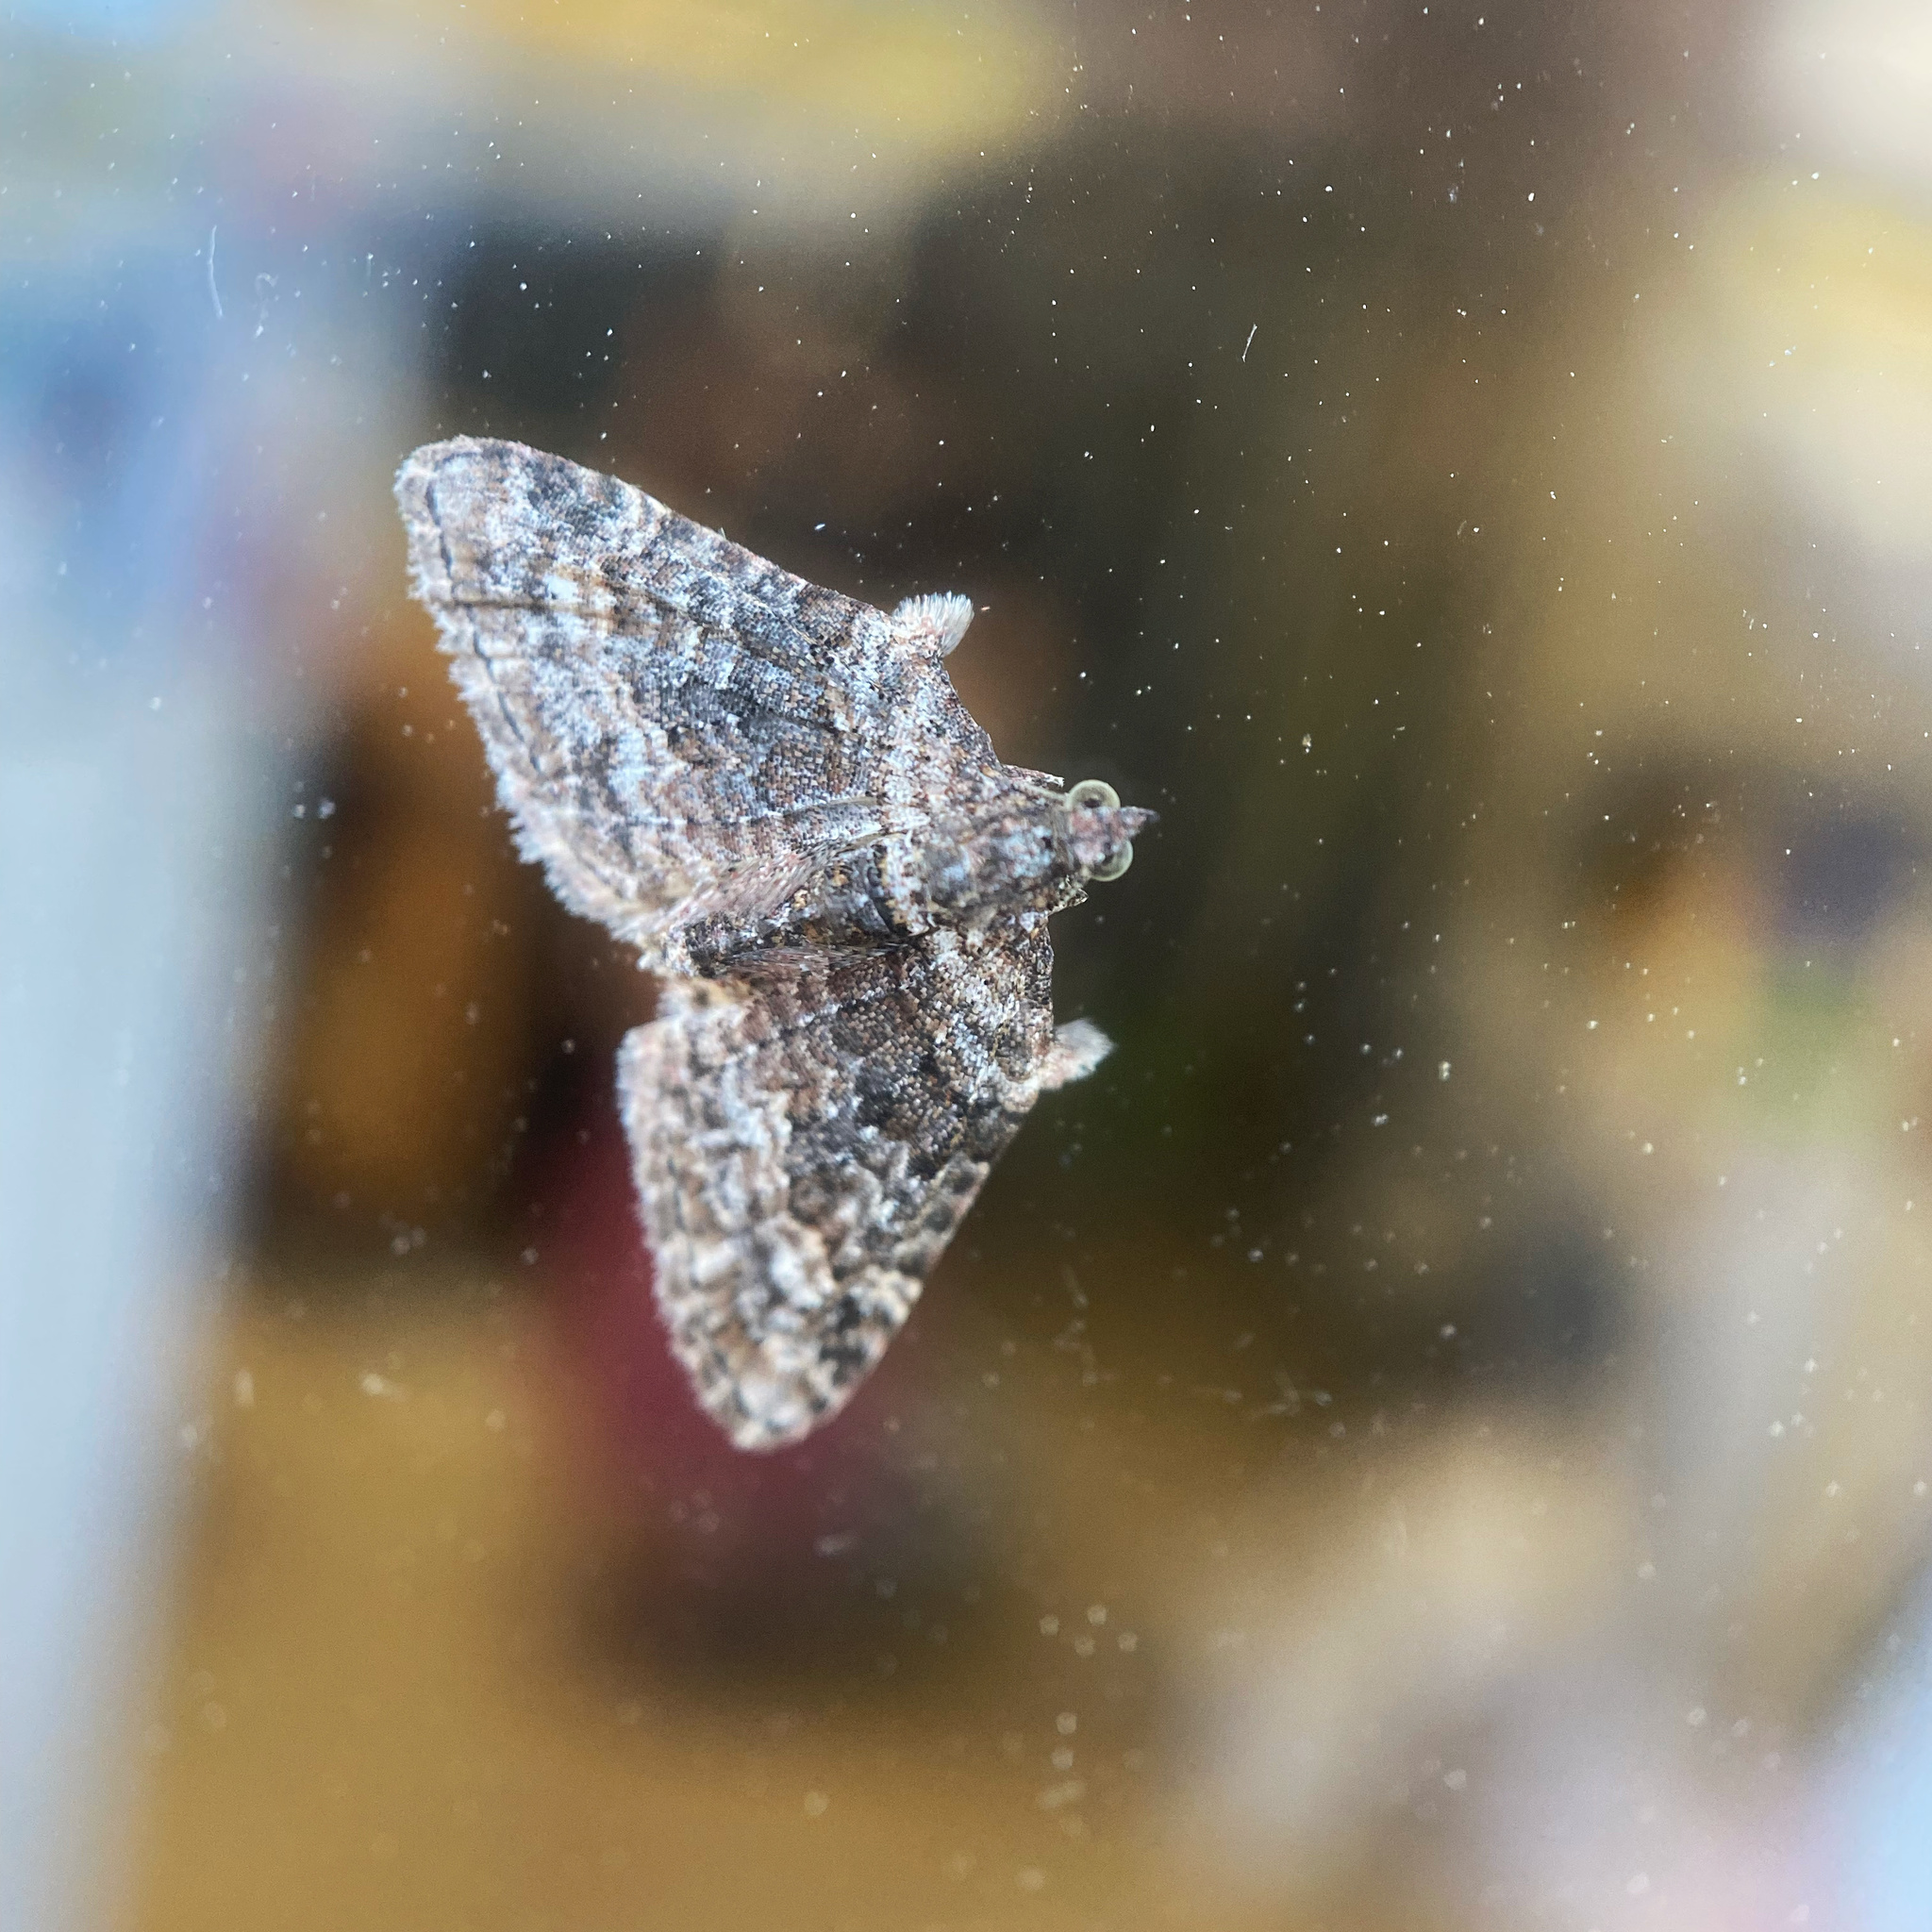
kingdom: Animalia
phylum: Arthropoda
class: Insecta
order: Lepidoptera
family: Geometridae
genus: Phrissogonus
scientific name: Phrissogonus laticostata
